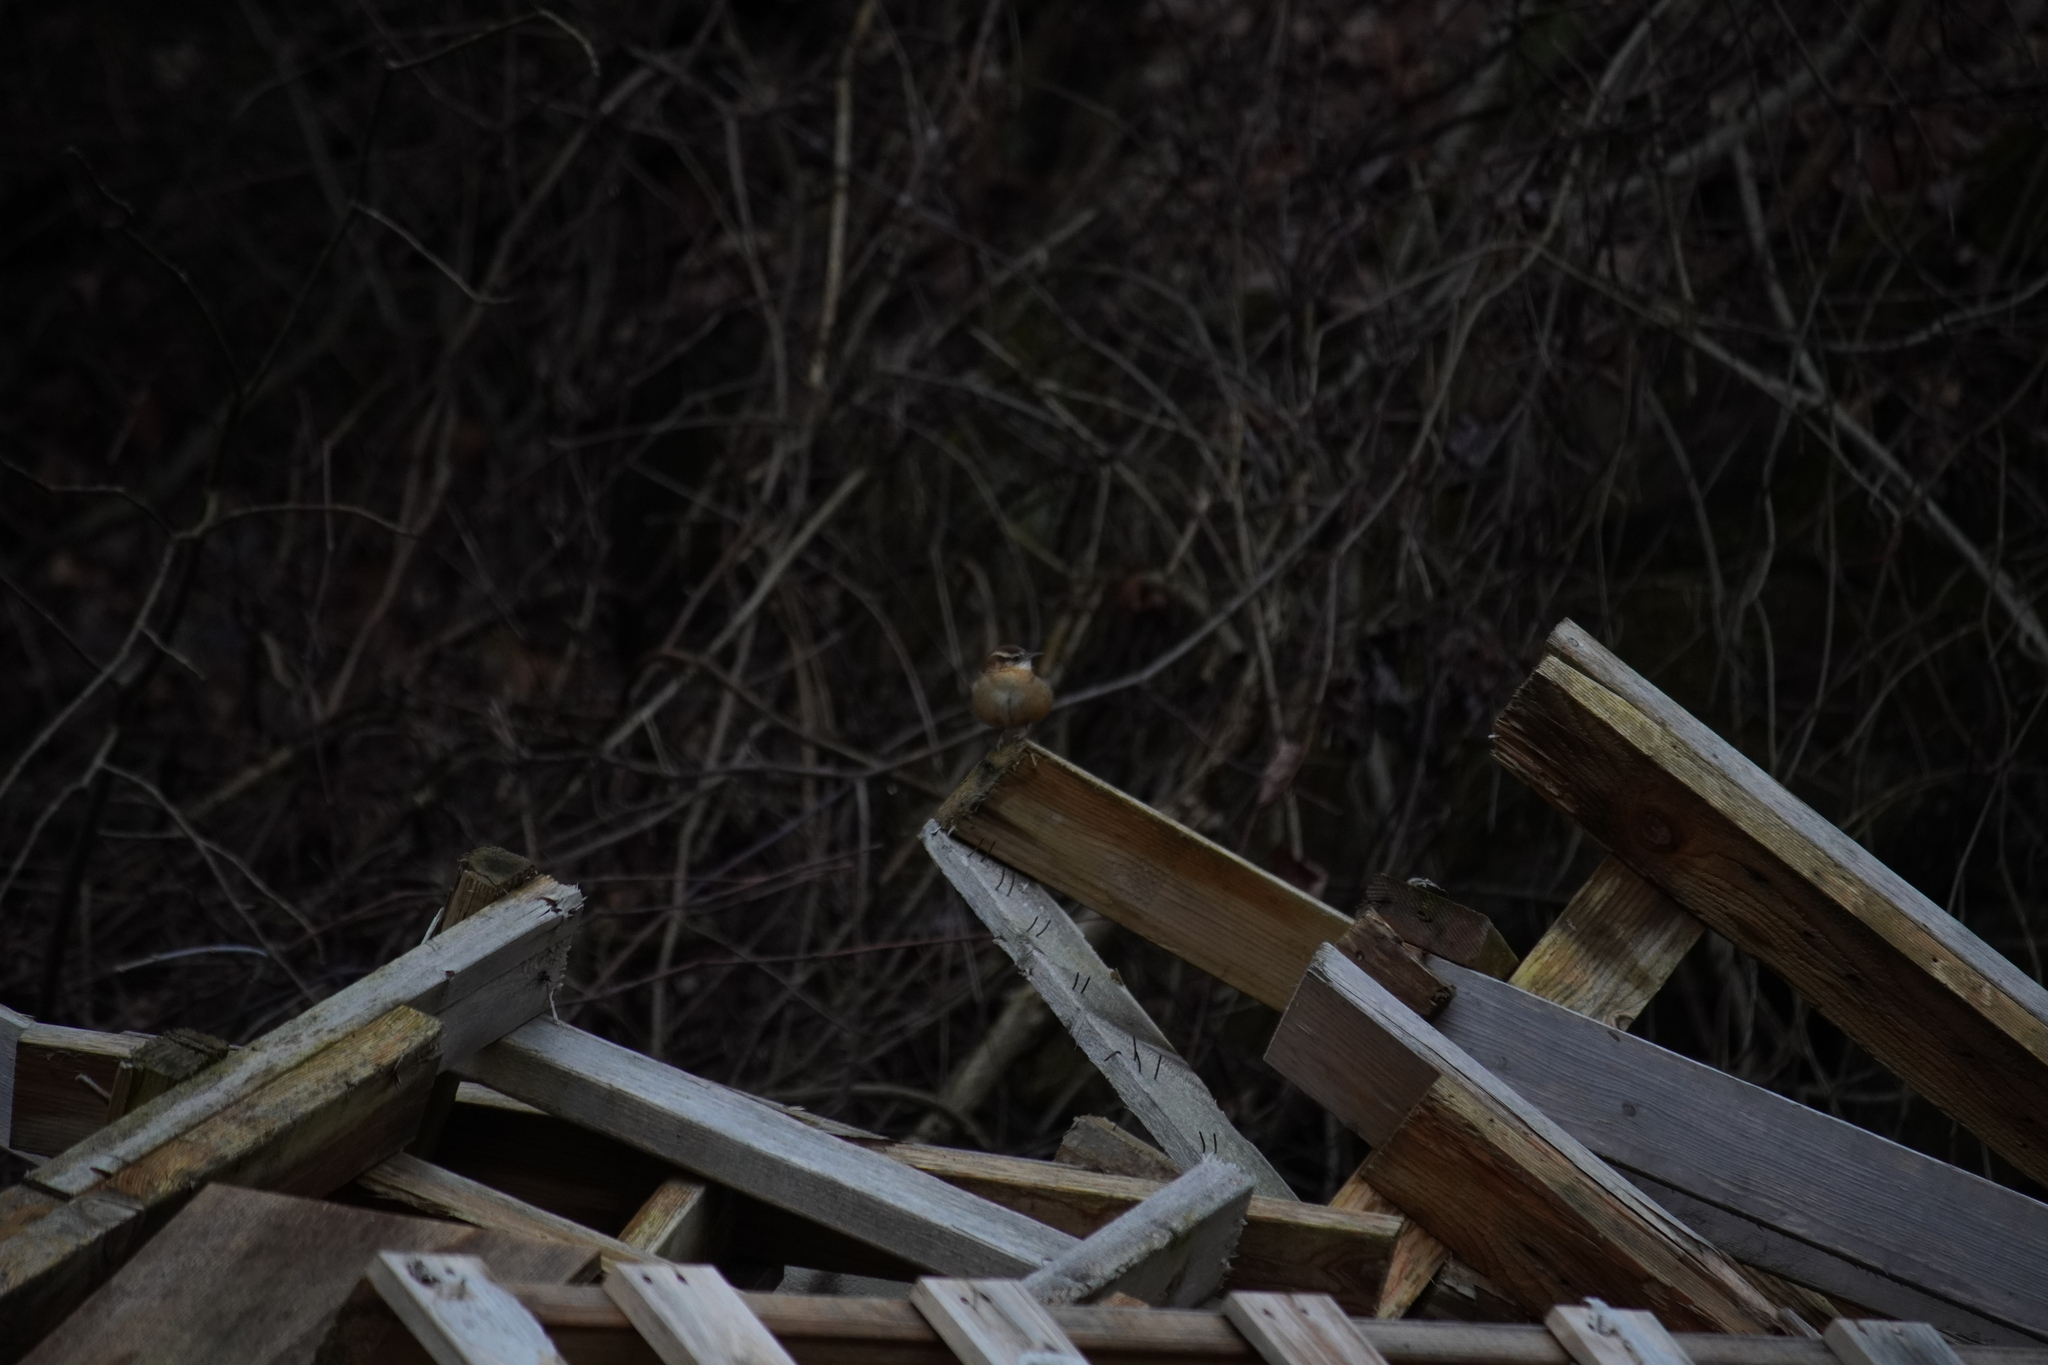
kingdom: Animalia
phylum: Chordata
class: Aves
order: Passeriformes
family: Troglodytidae
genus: Thryothorus
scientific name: Thryothorus ludovicianus
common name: Carolina wren
